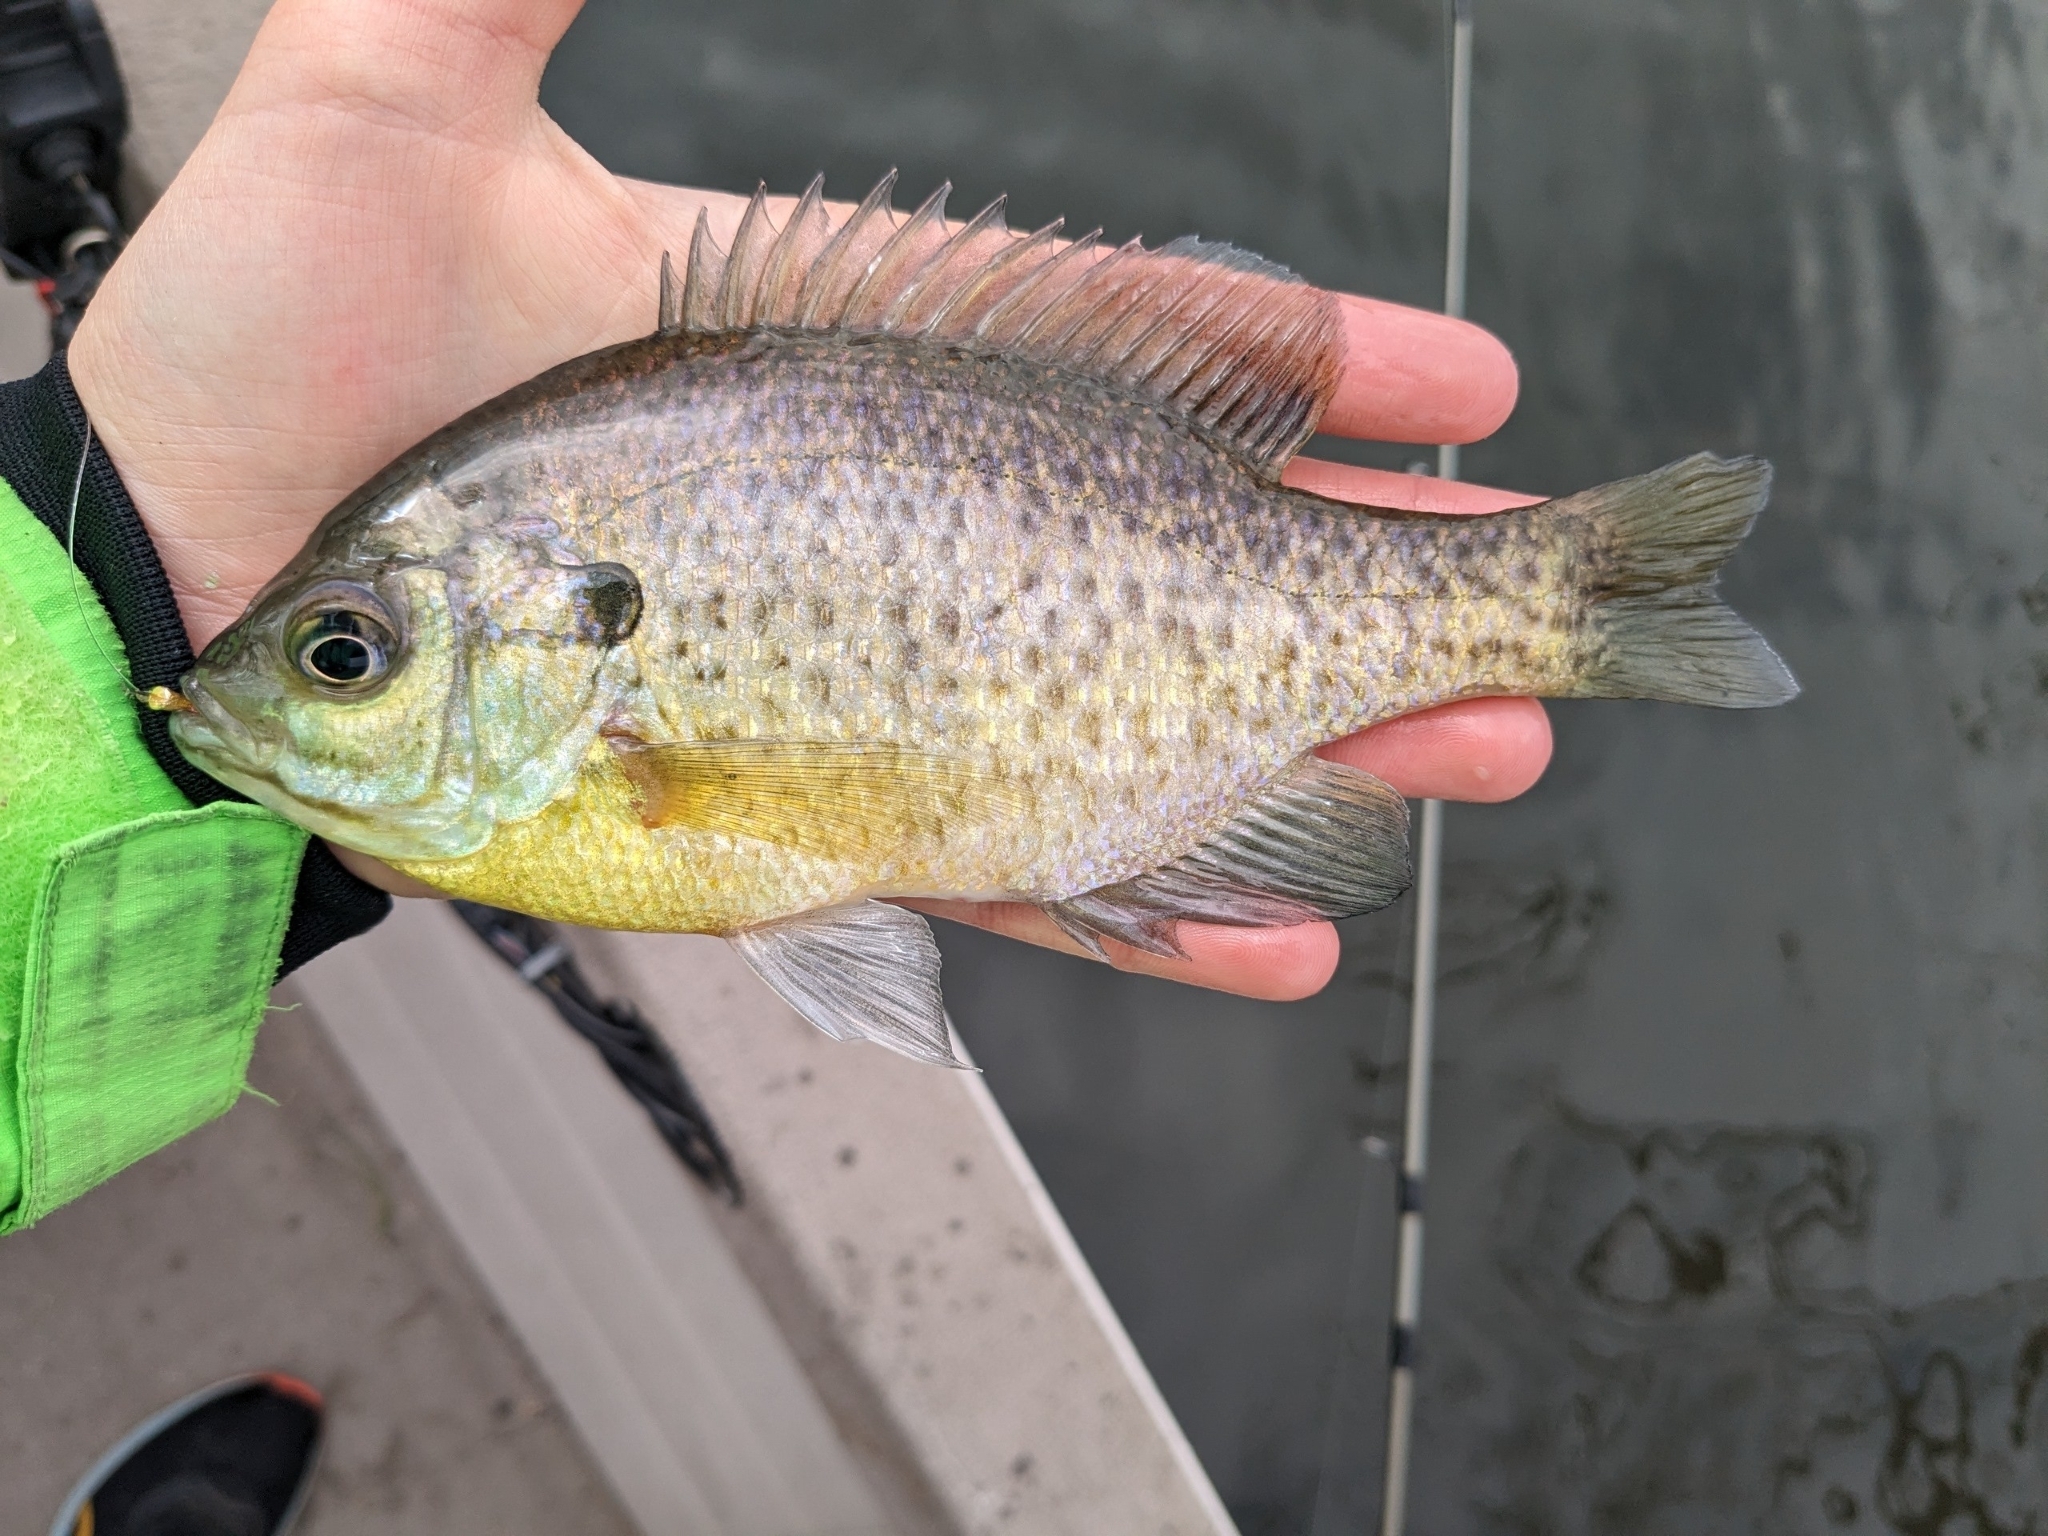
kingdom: Animalia
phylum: Chordata
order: Perciformes
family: Centrarchidae
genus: Lepomis
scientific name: Lepomis macrochirus
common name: Bluegill
